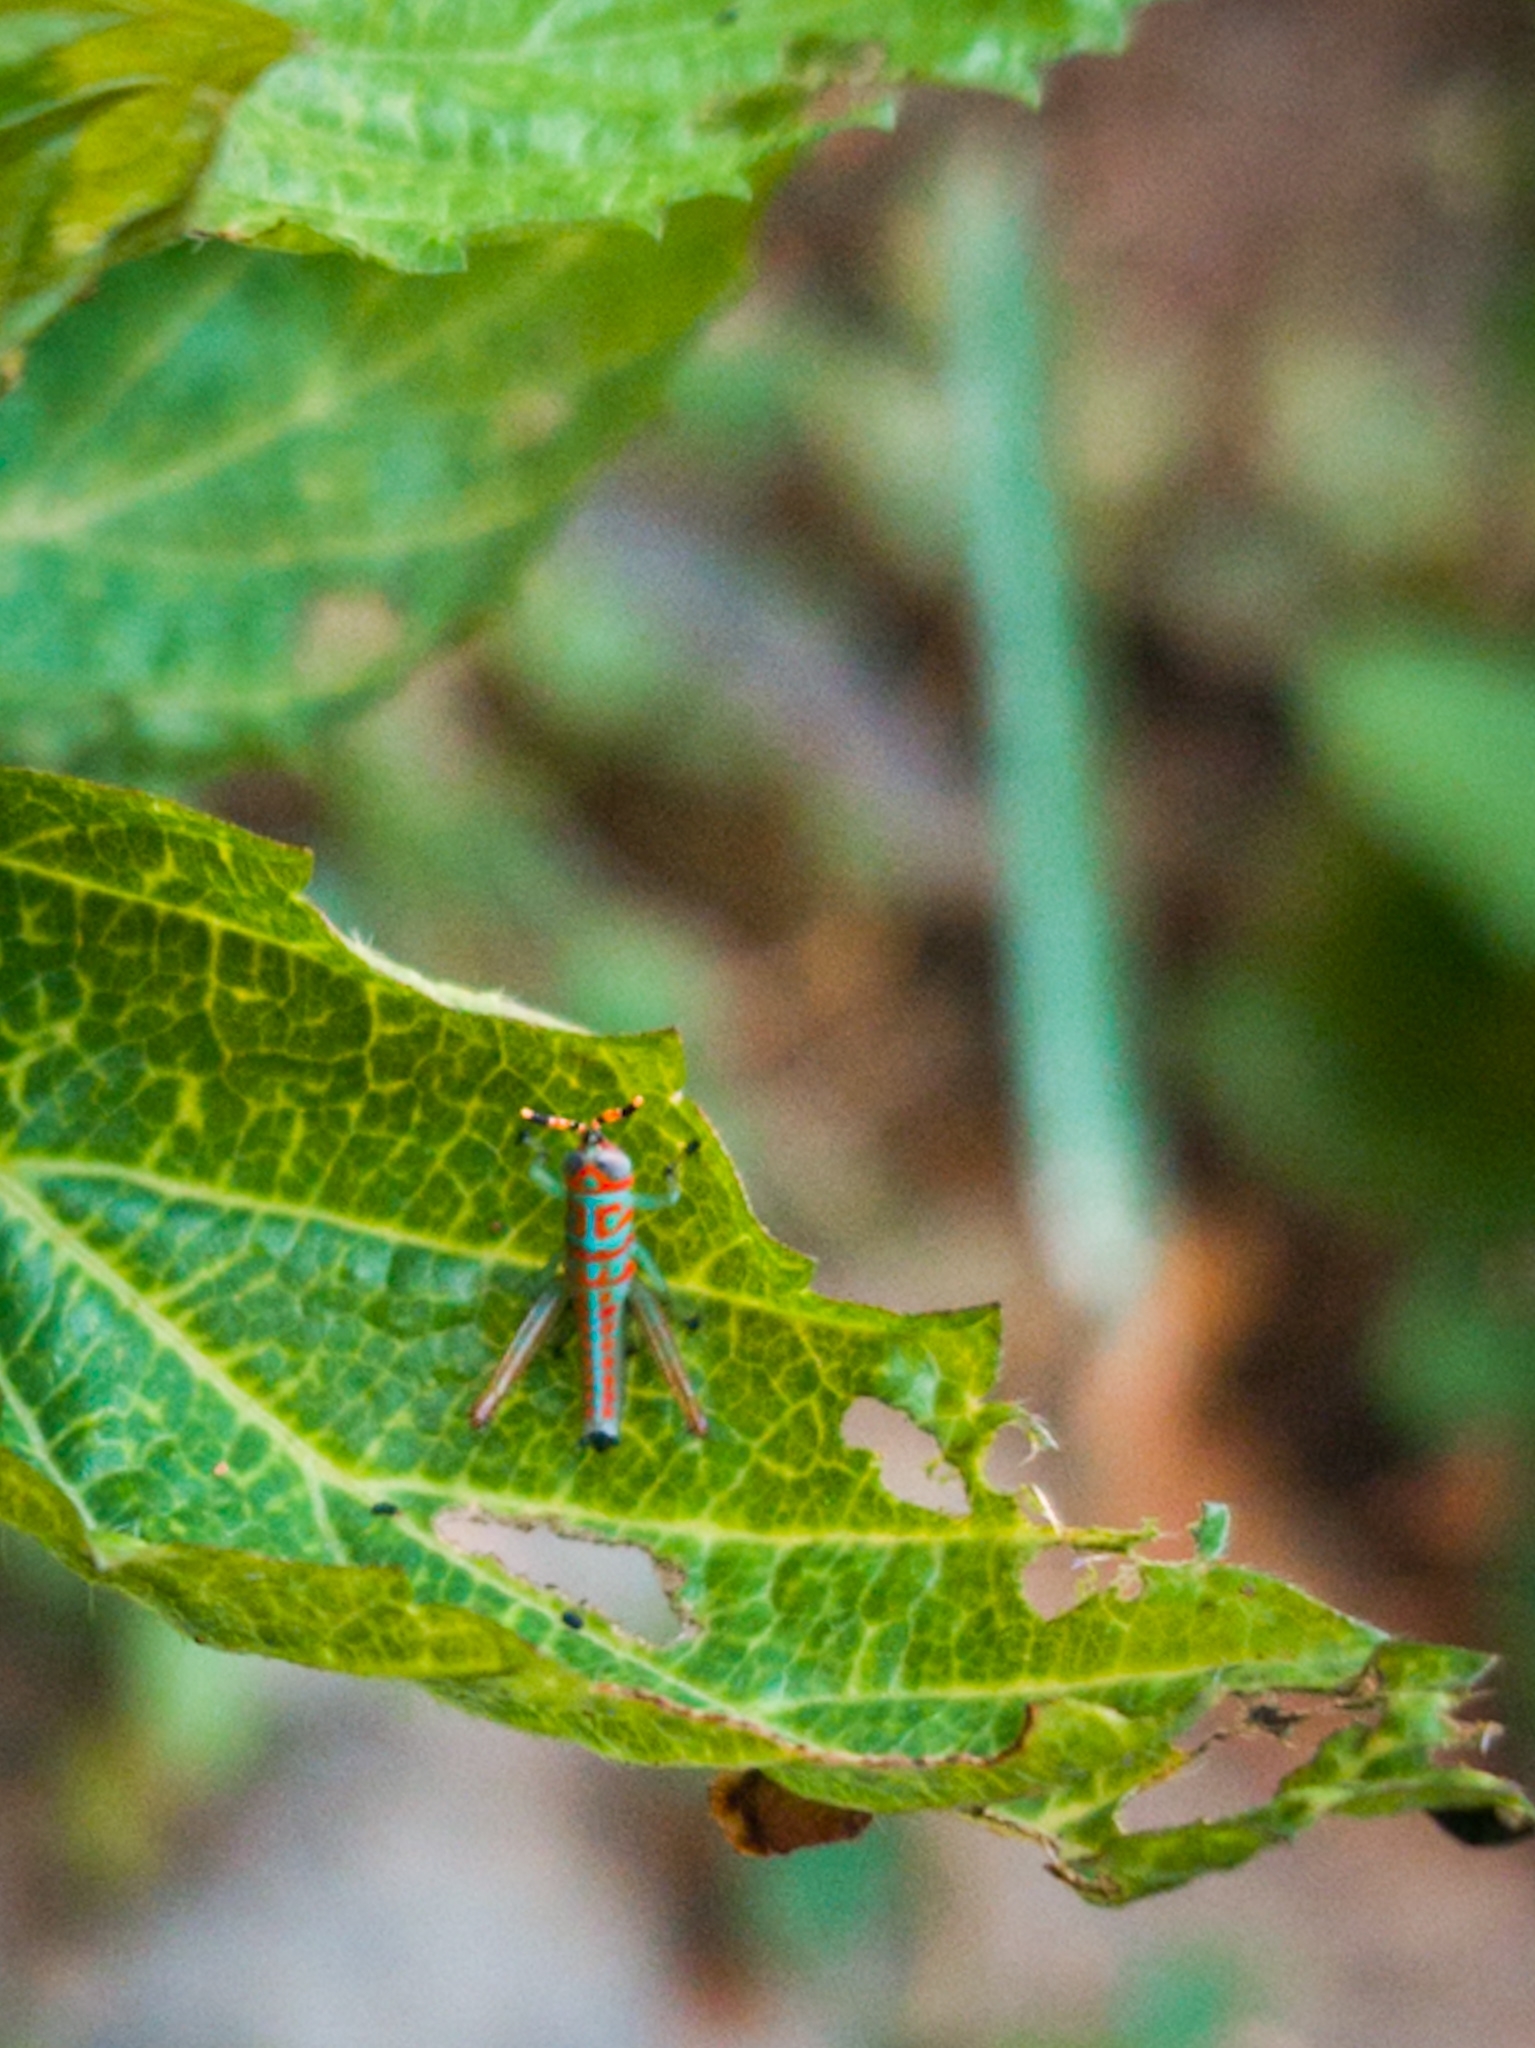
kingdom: Animalia
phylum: Arthropoda
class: Insecta
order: Orthoptera
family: Acrididae
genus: Pirithoicus
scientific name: Pirithoicus ophthalmicus
